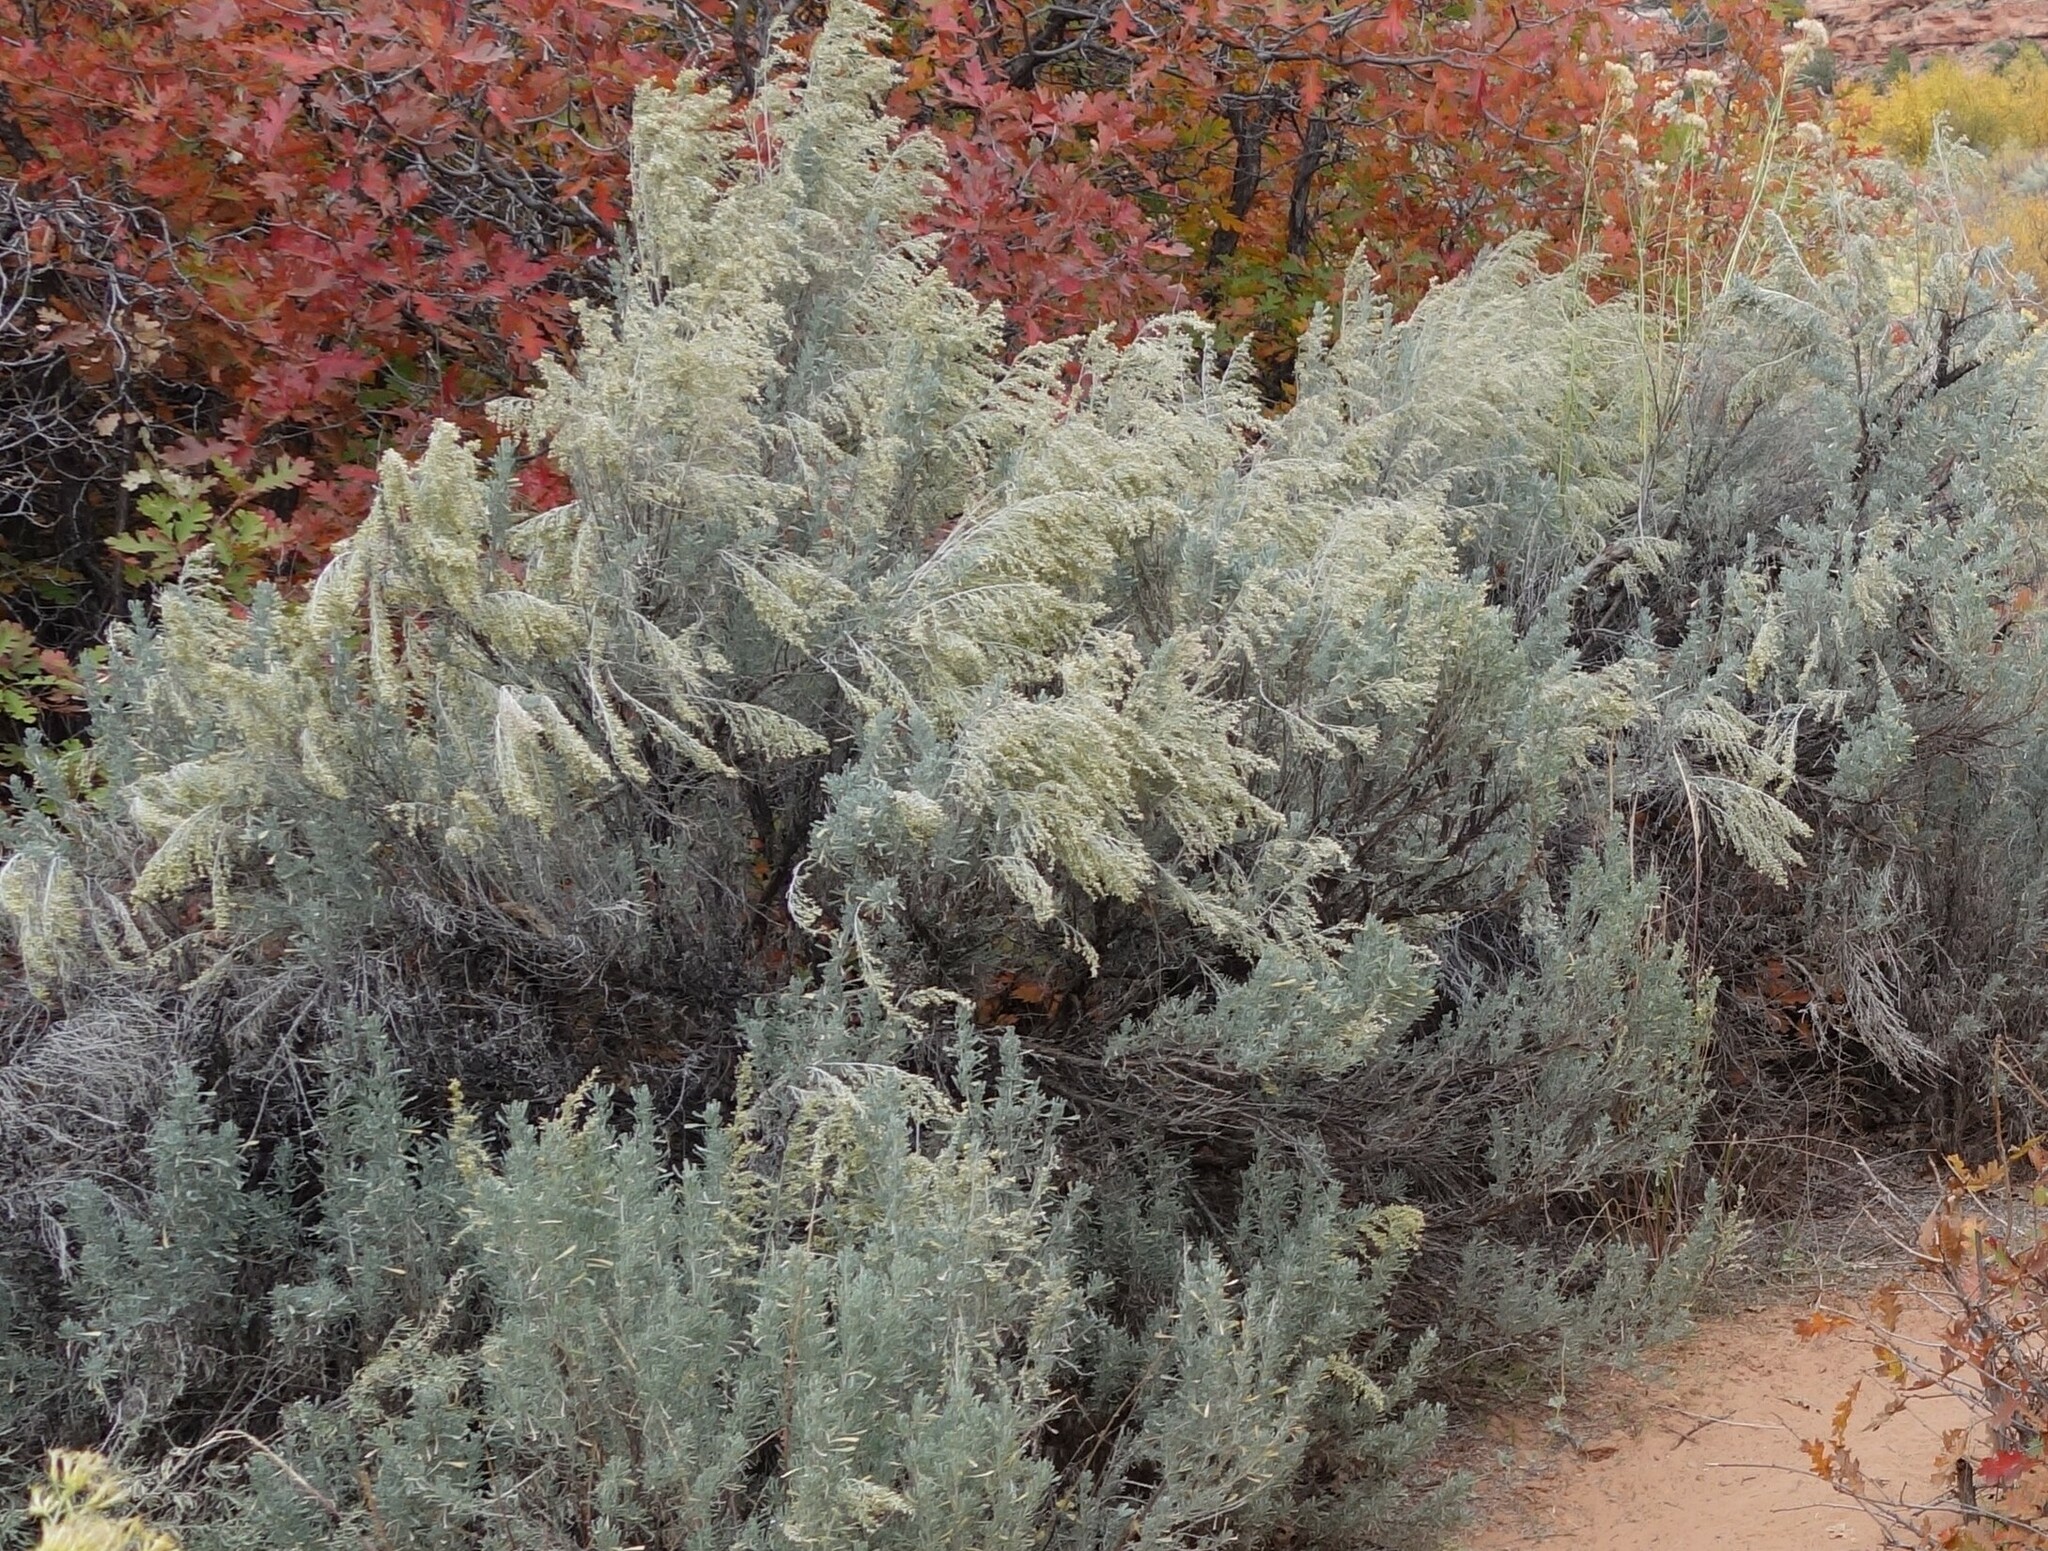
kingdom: Plantae
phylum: Tracheophyta
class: Magnoliopsida
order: Asterales
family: Asteraceae
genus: Artemisia
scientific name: Artemisia tridentata
